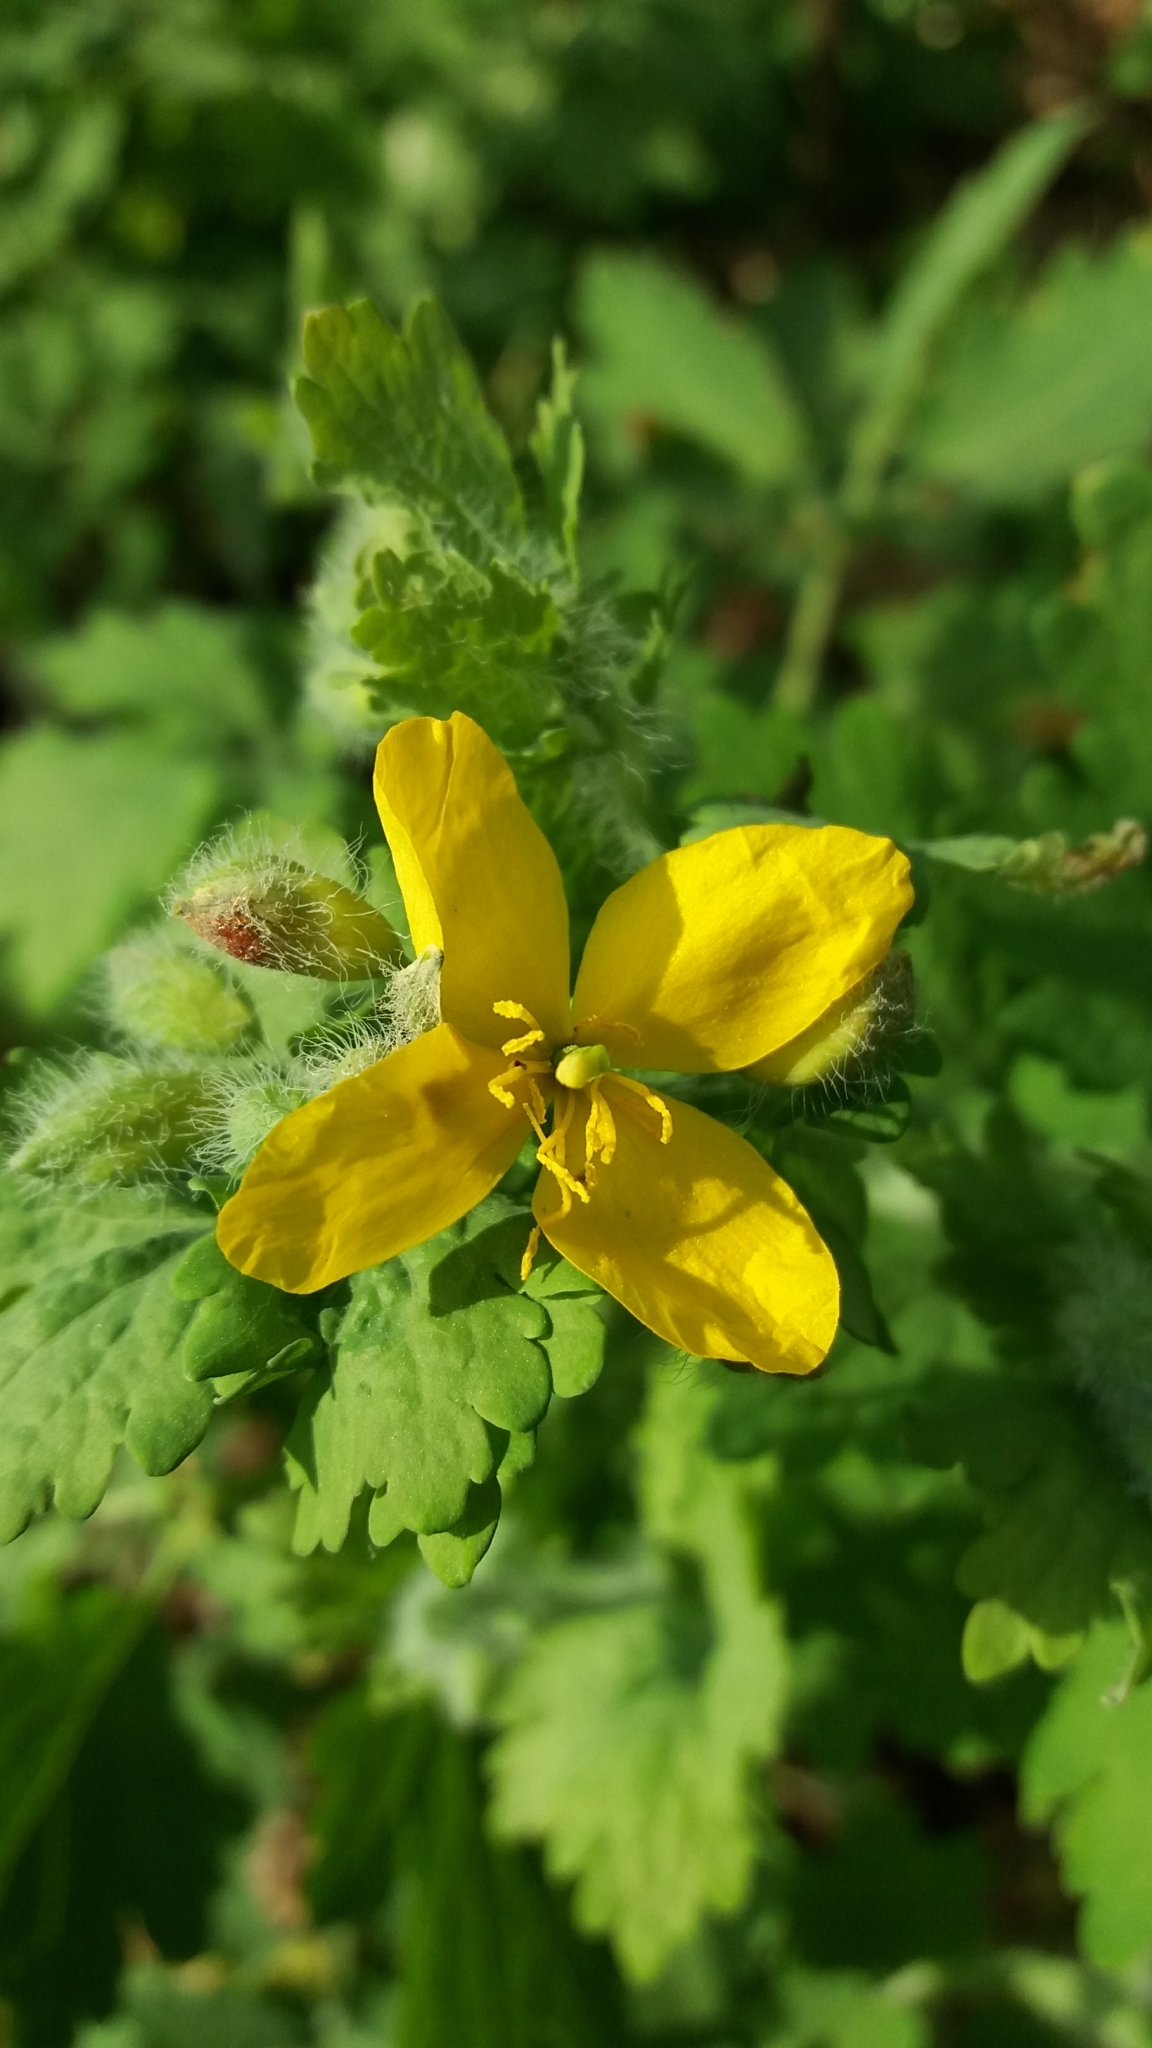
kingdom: Plantae
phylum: Tracheophyta
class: Magnoliopsida
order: Ranunculales
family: Papaveraceae
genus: Chelidonium
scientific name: Chelidonium majus
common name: Greater celandine
